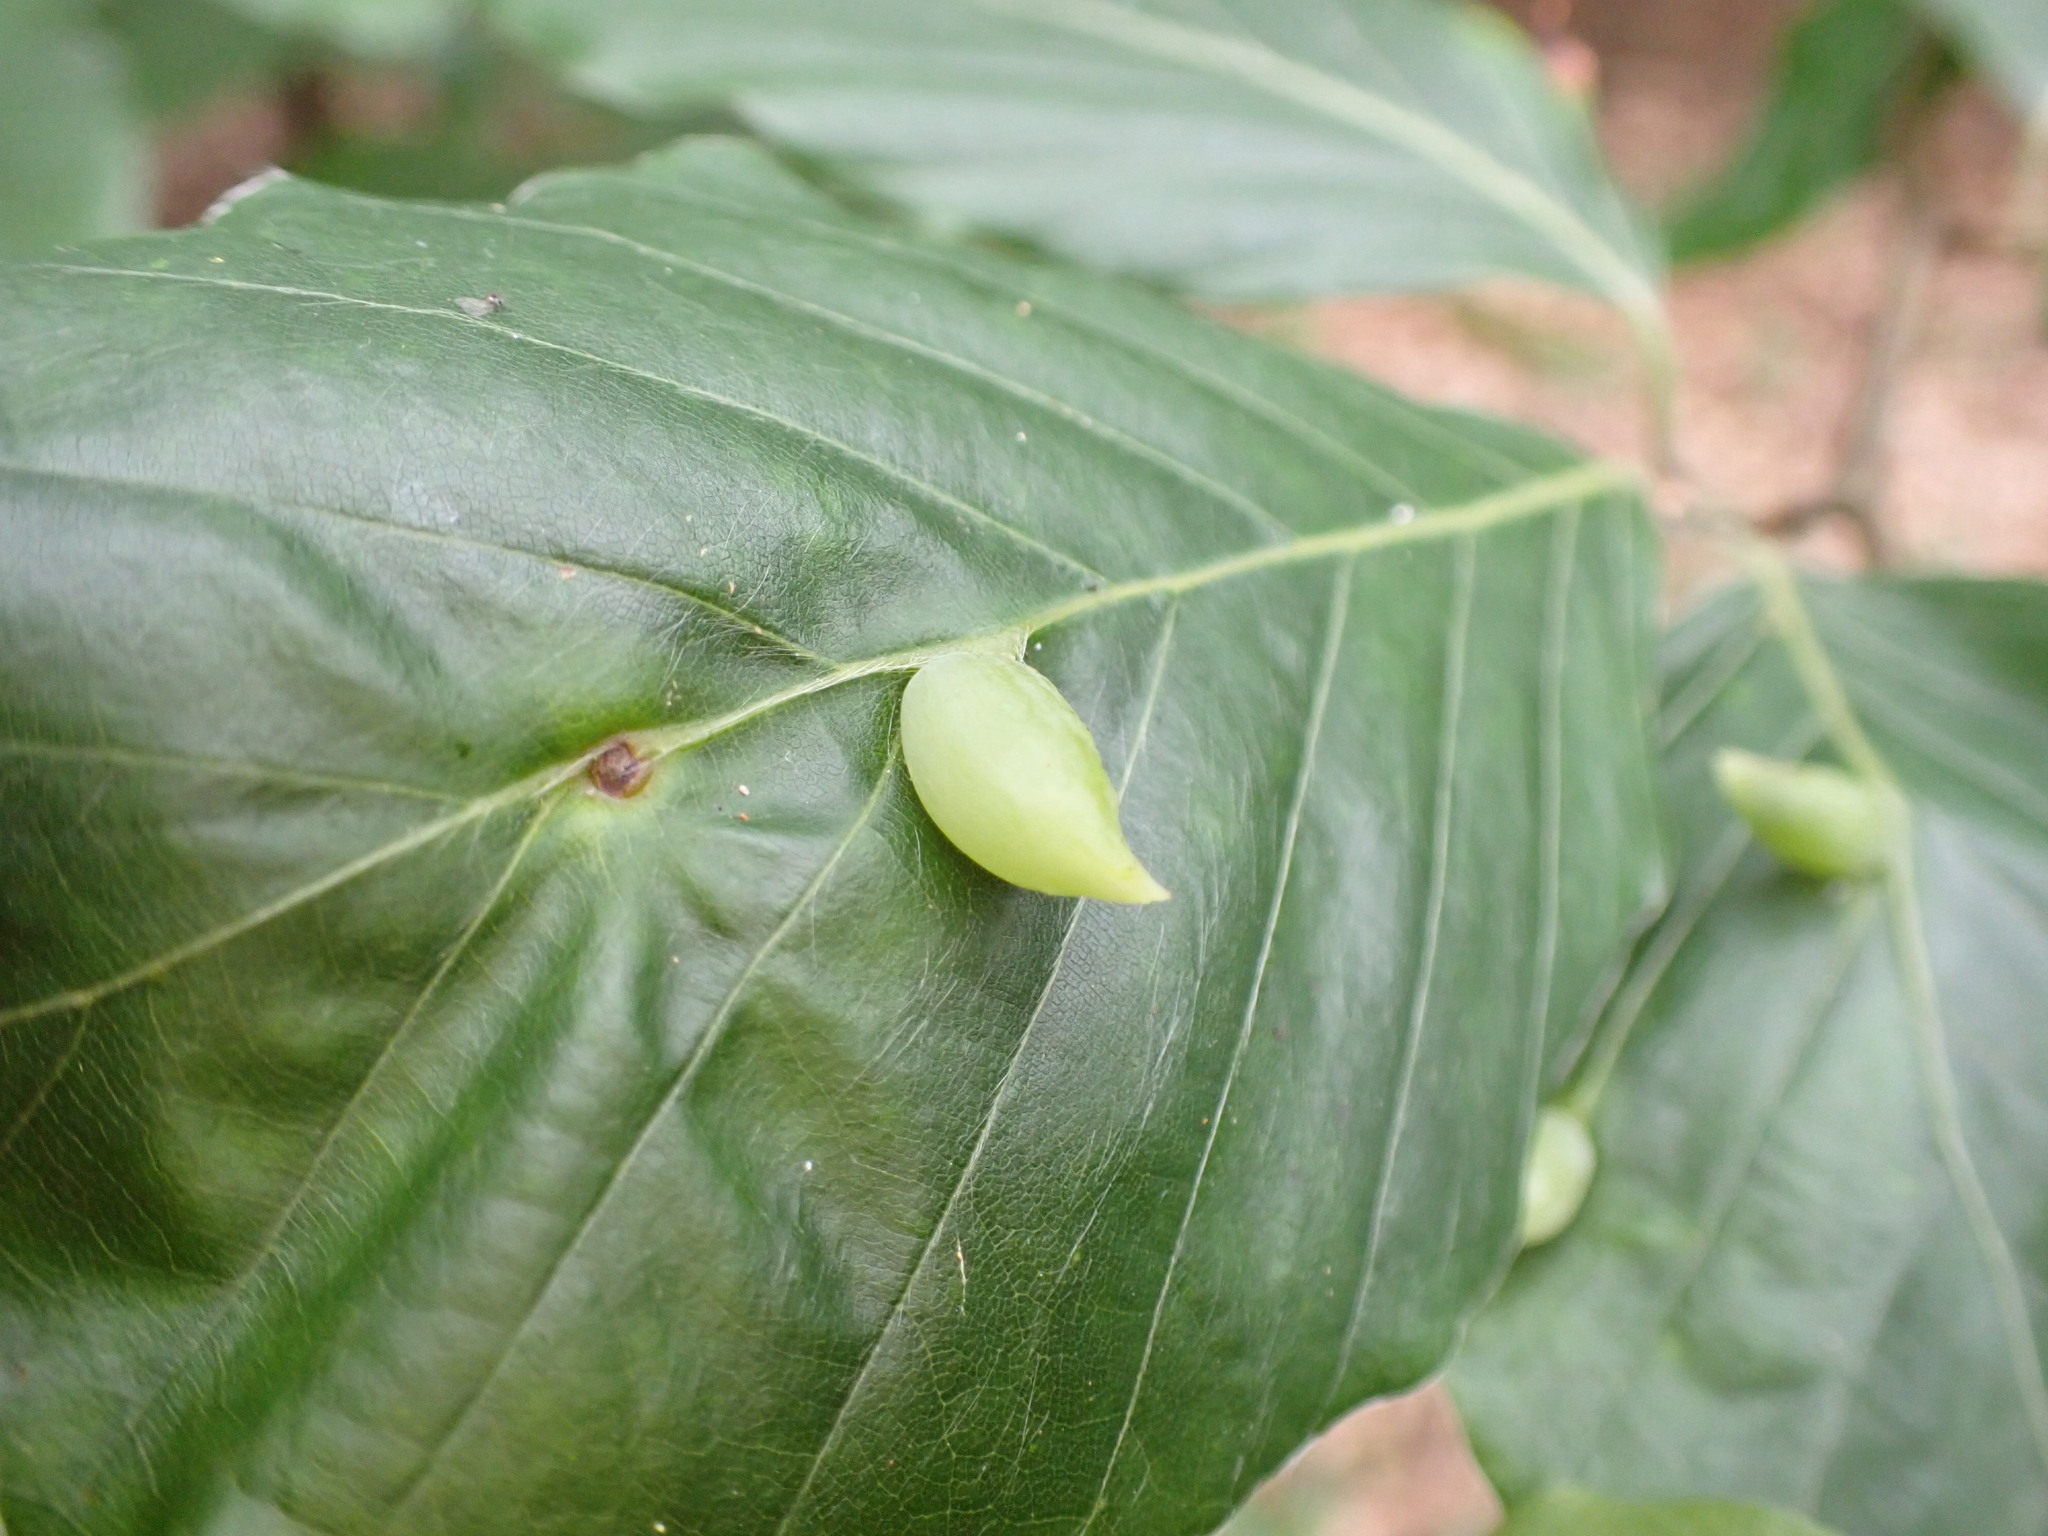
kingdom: Animalia
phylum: Arthropoda
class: Insecta
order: Diptera
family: Cecidomyiidae
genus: Mikiola
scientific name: Mikiola fagi
